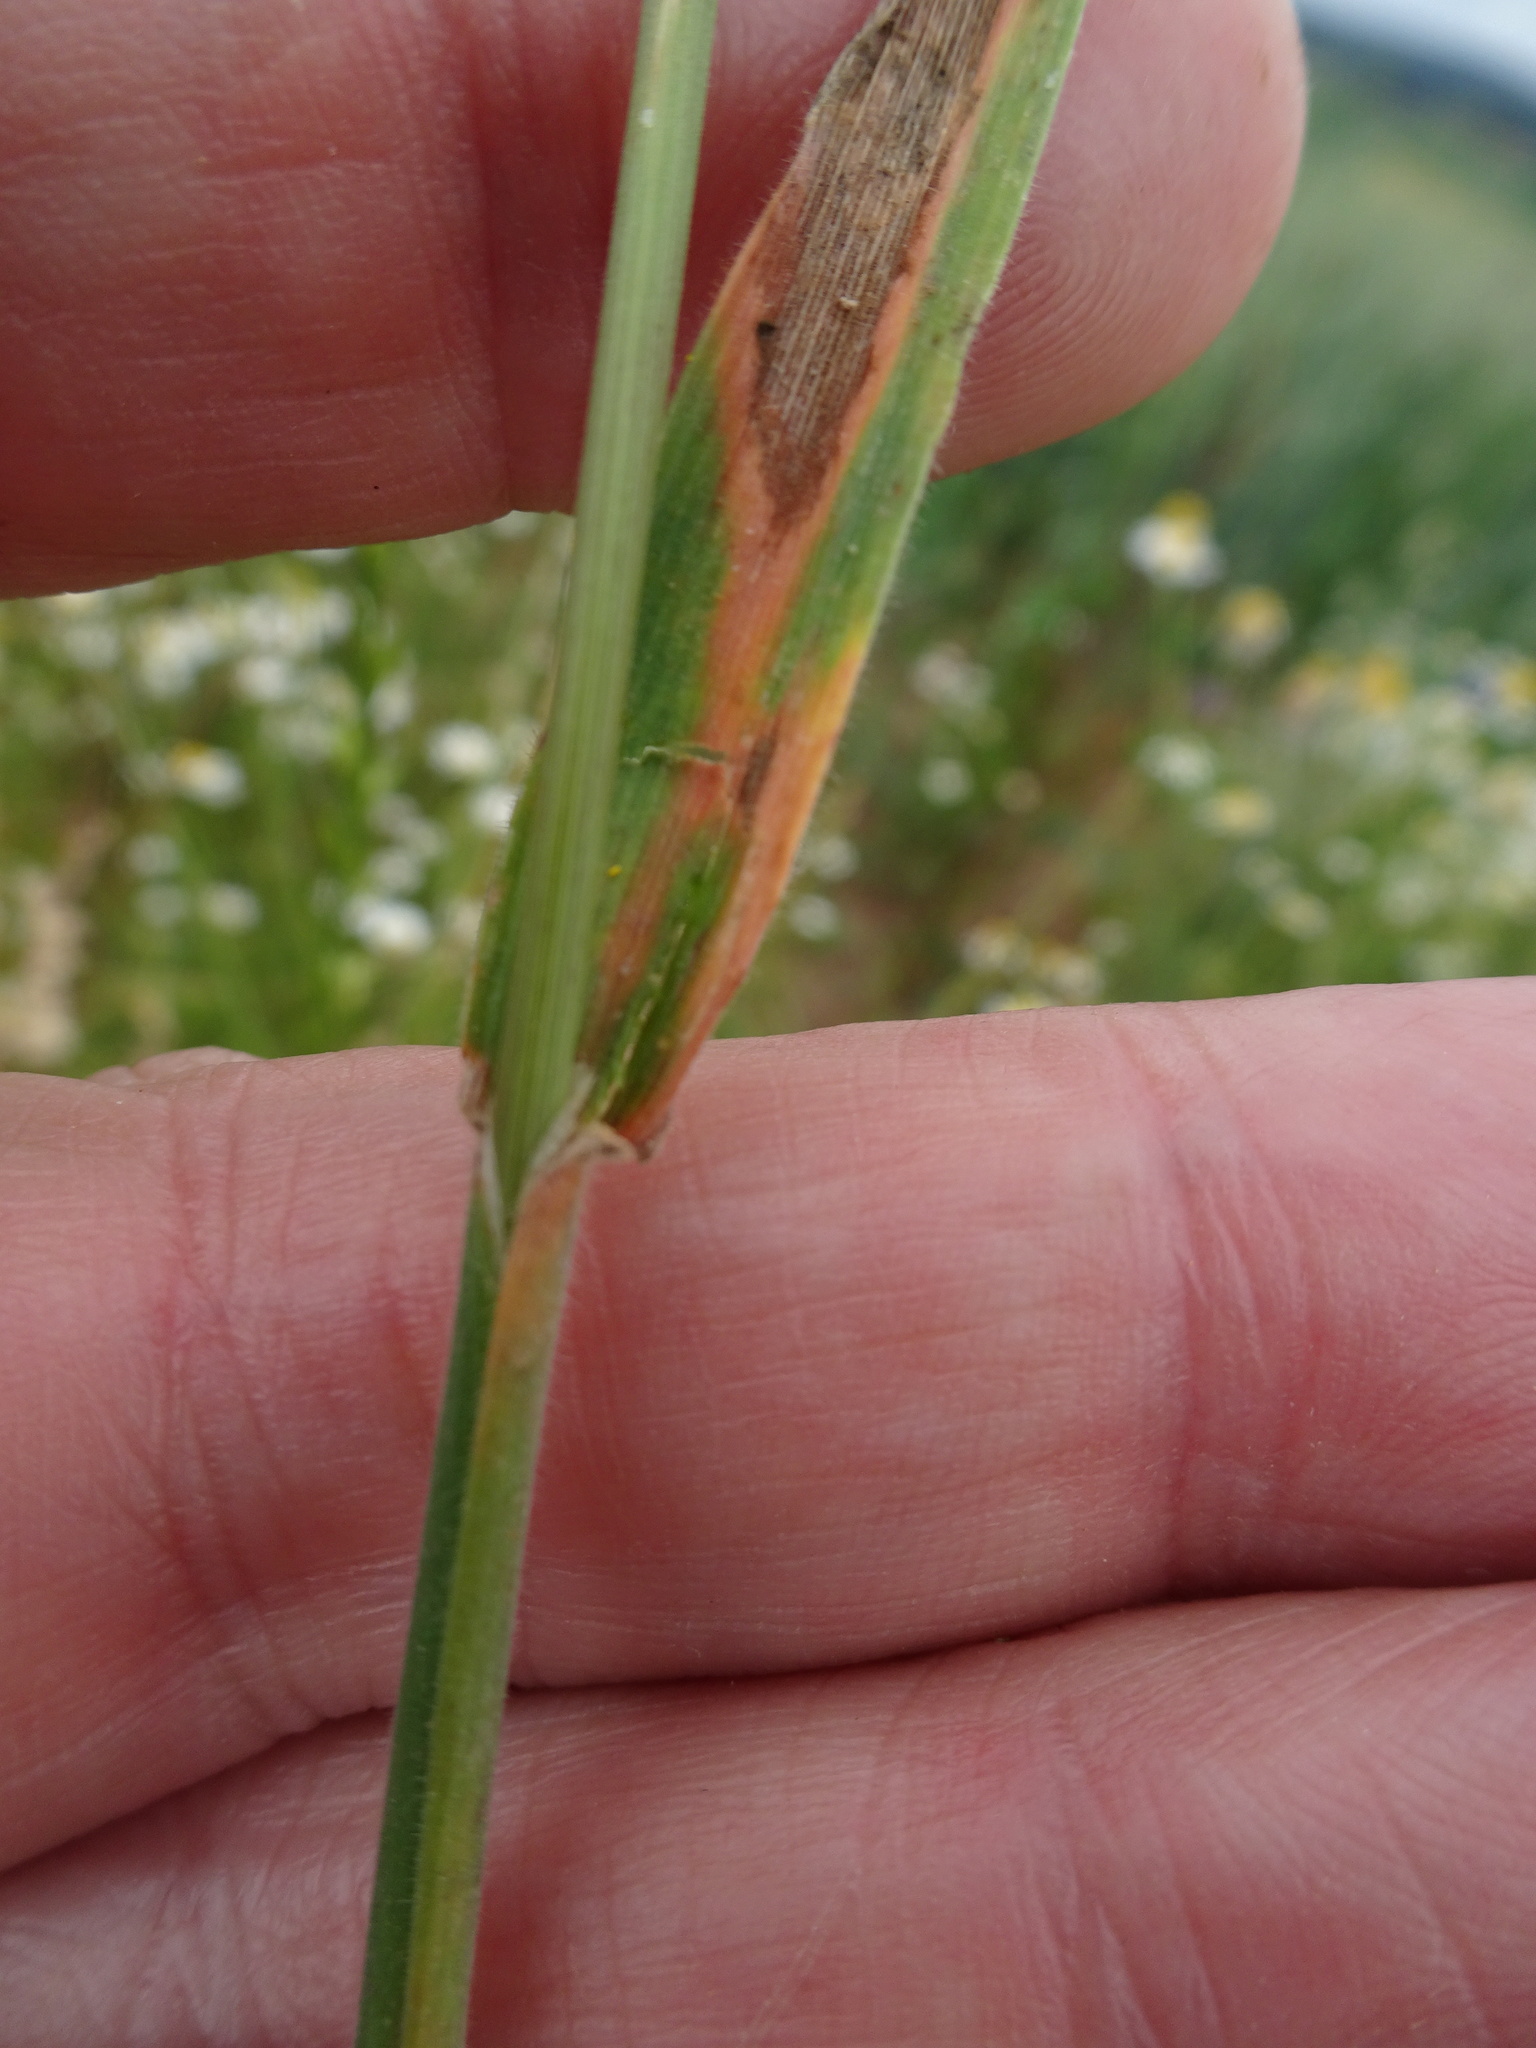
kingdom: Plantae
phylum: Tracheophyta
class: Liliopsida
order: Poales
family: Poaceae
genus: Holcus
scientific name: Holcus lanatus
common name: Yorkshire-fog
